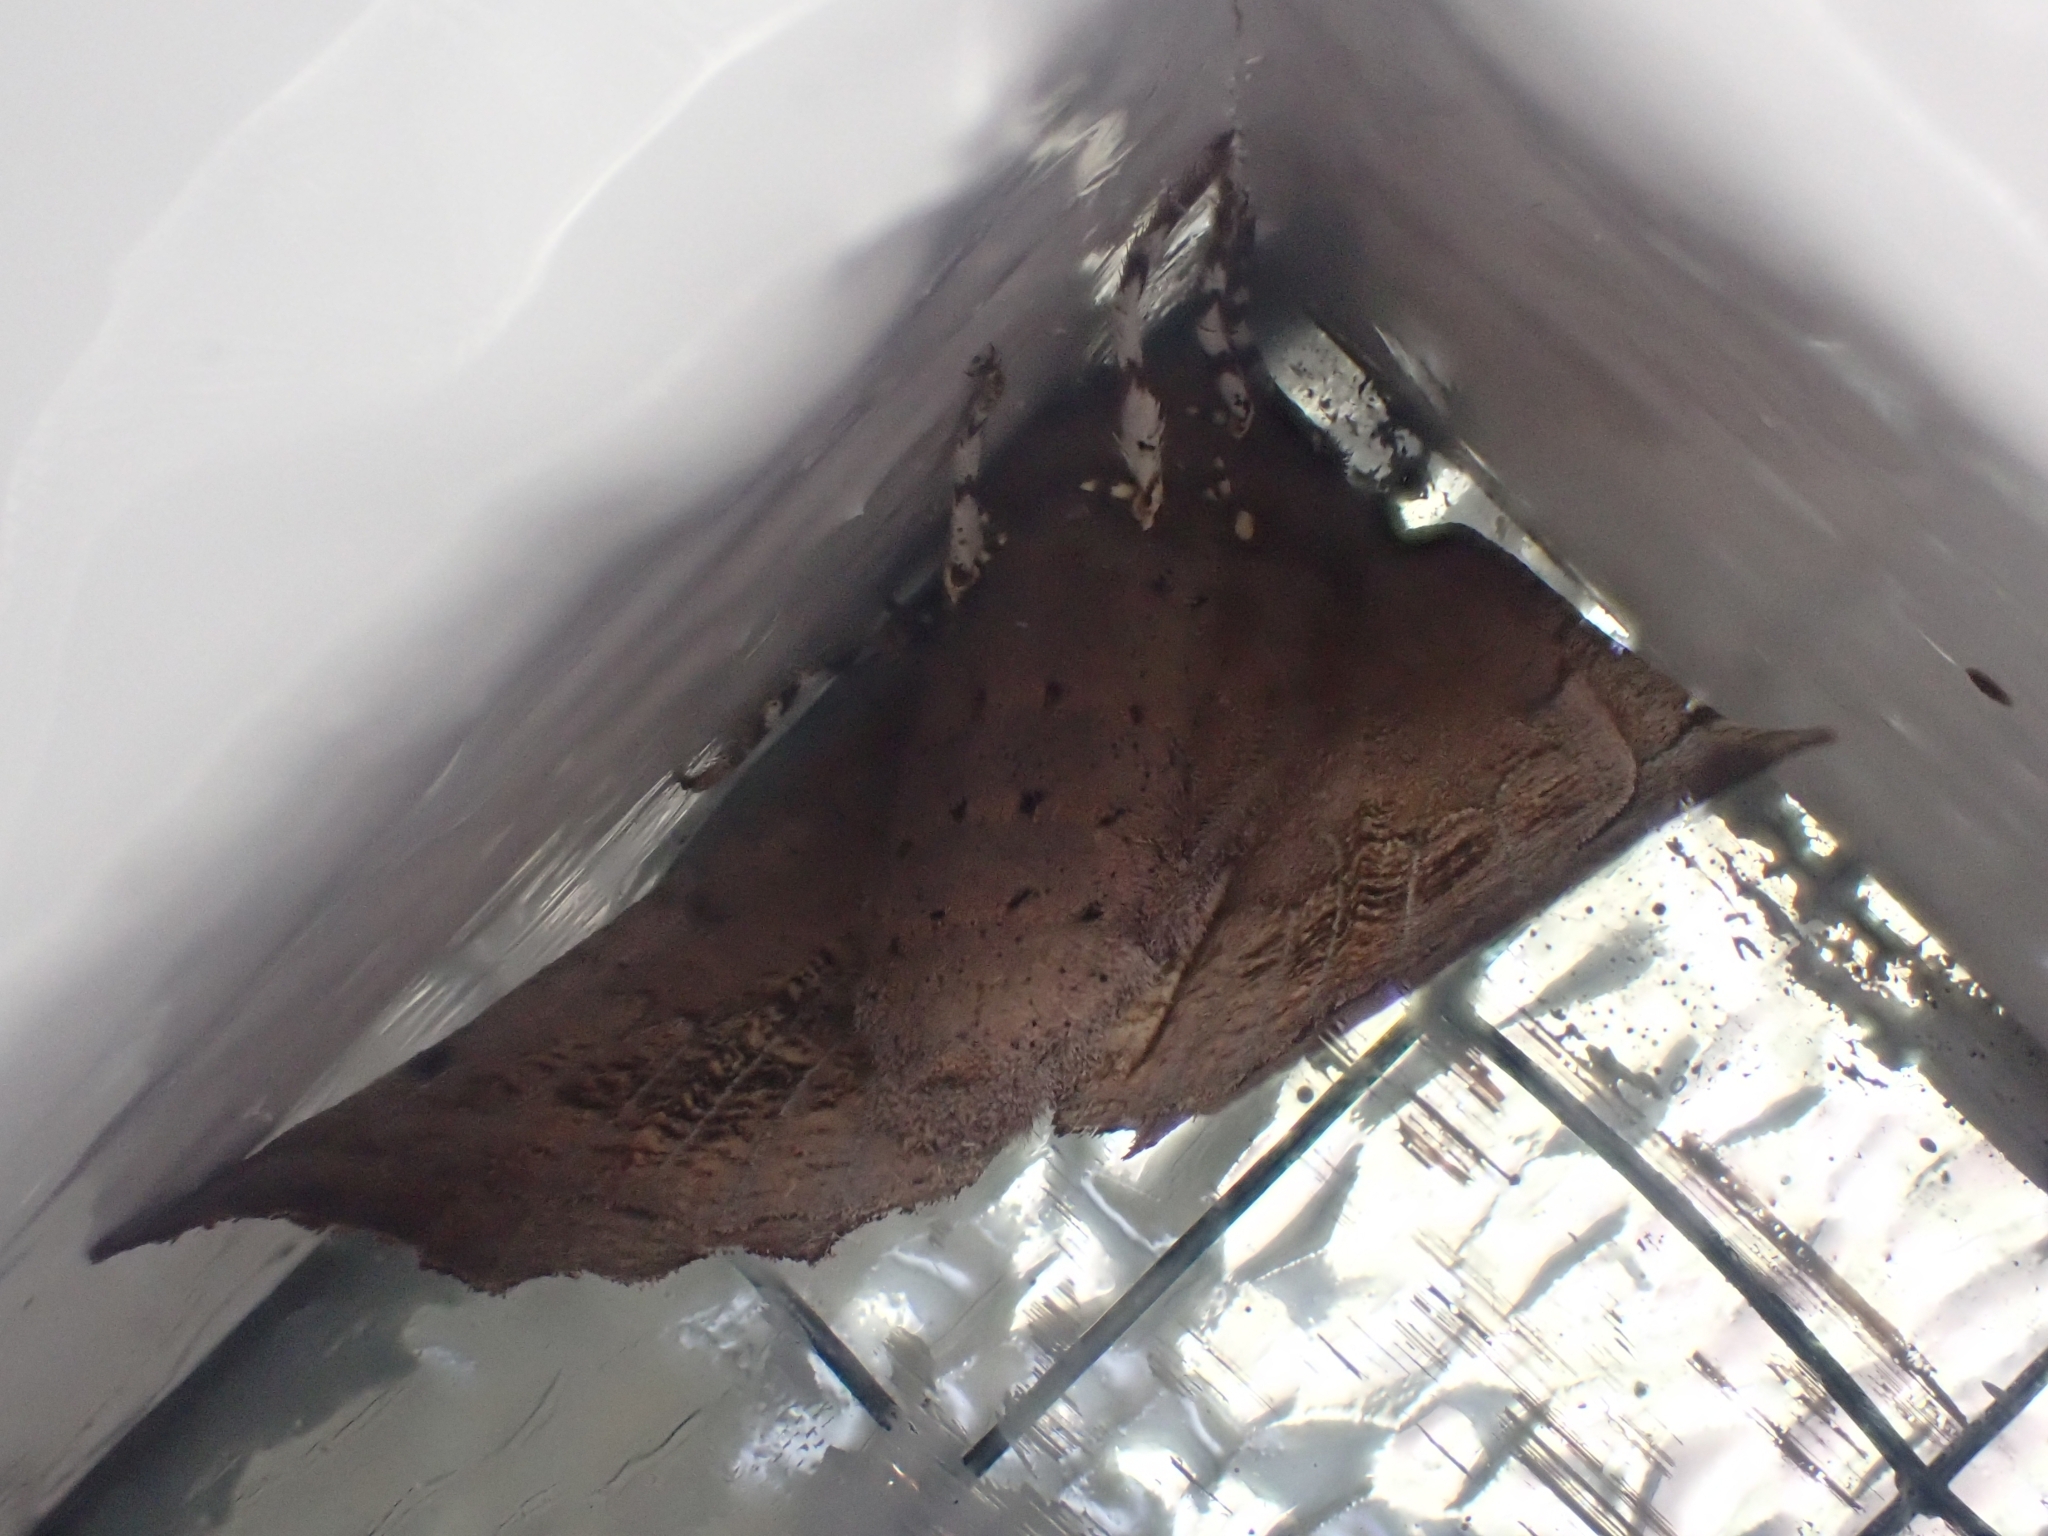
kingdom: Animalia
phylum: Arthropoda
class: Insecta
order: Lepidoptera
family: Erebidae
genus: Scoliopteryx
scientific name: Scoliopteryx libatrix
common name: Herald
